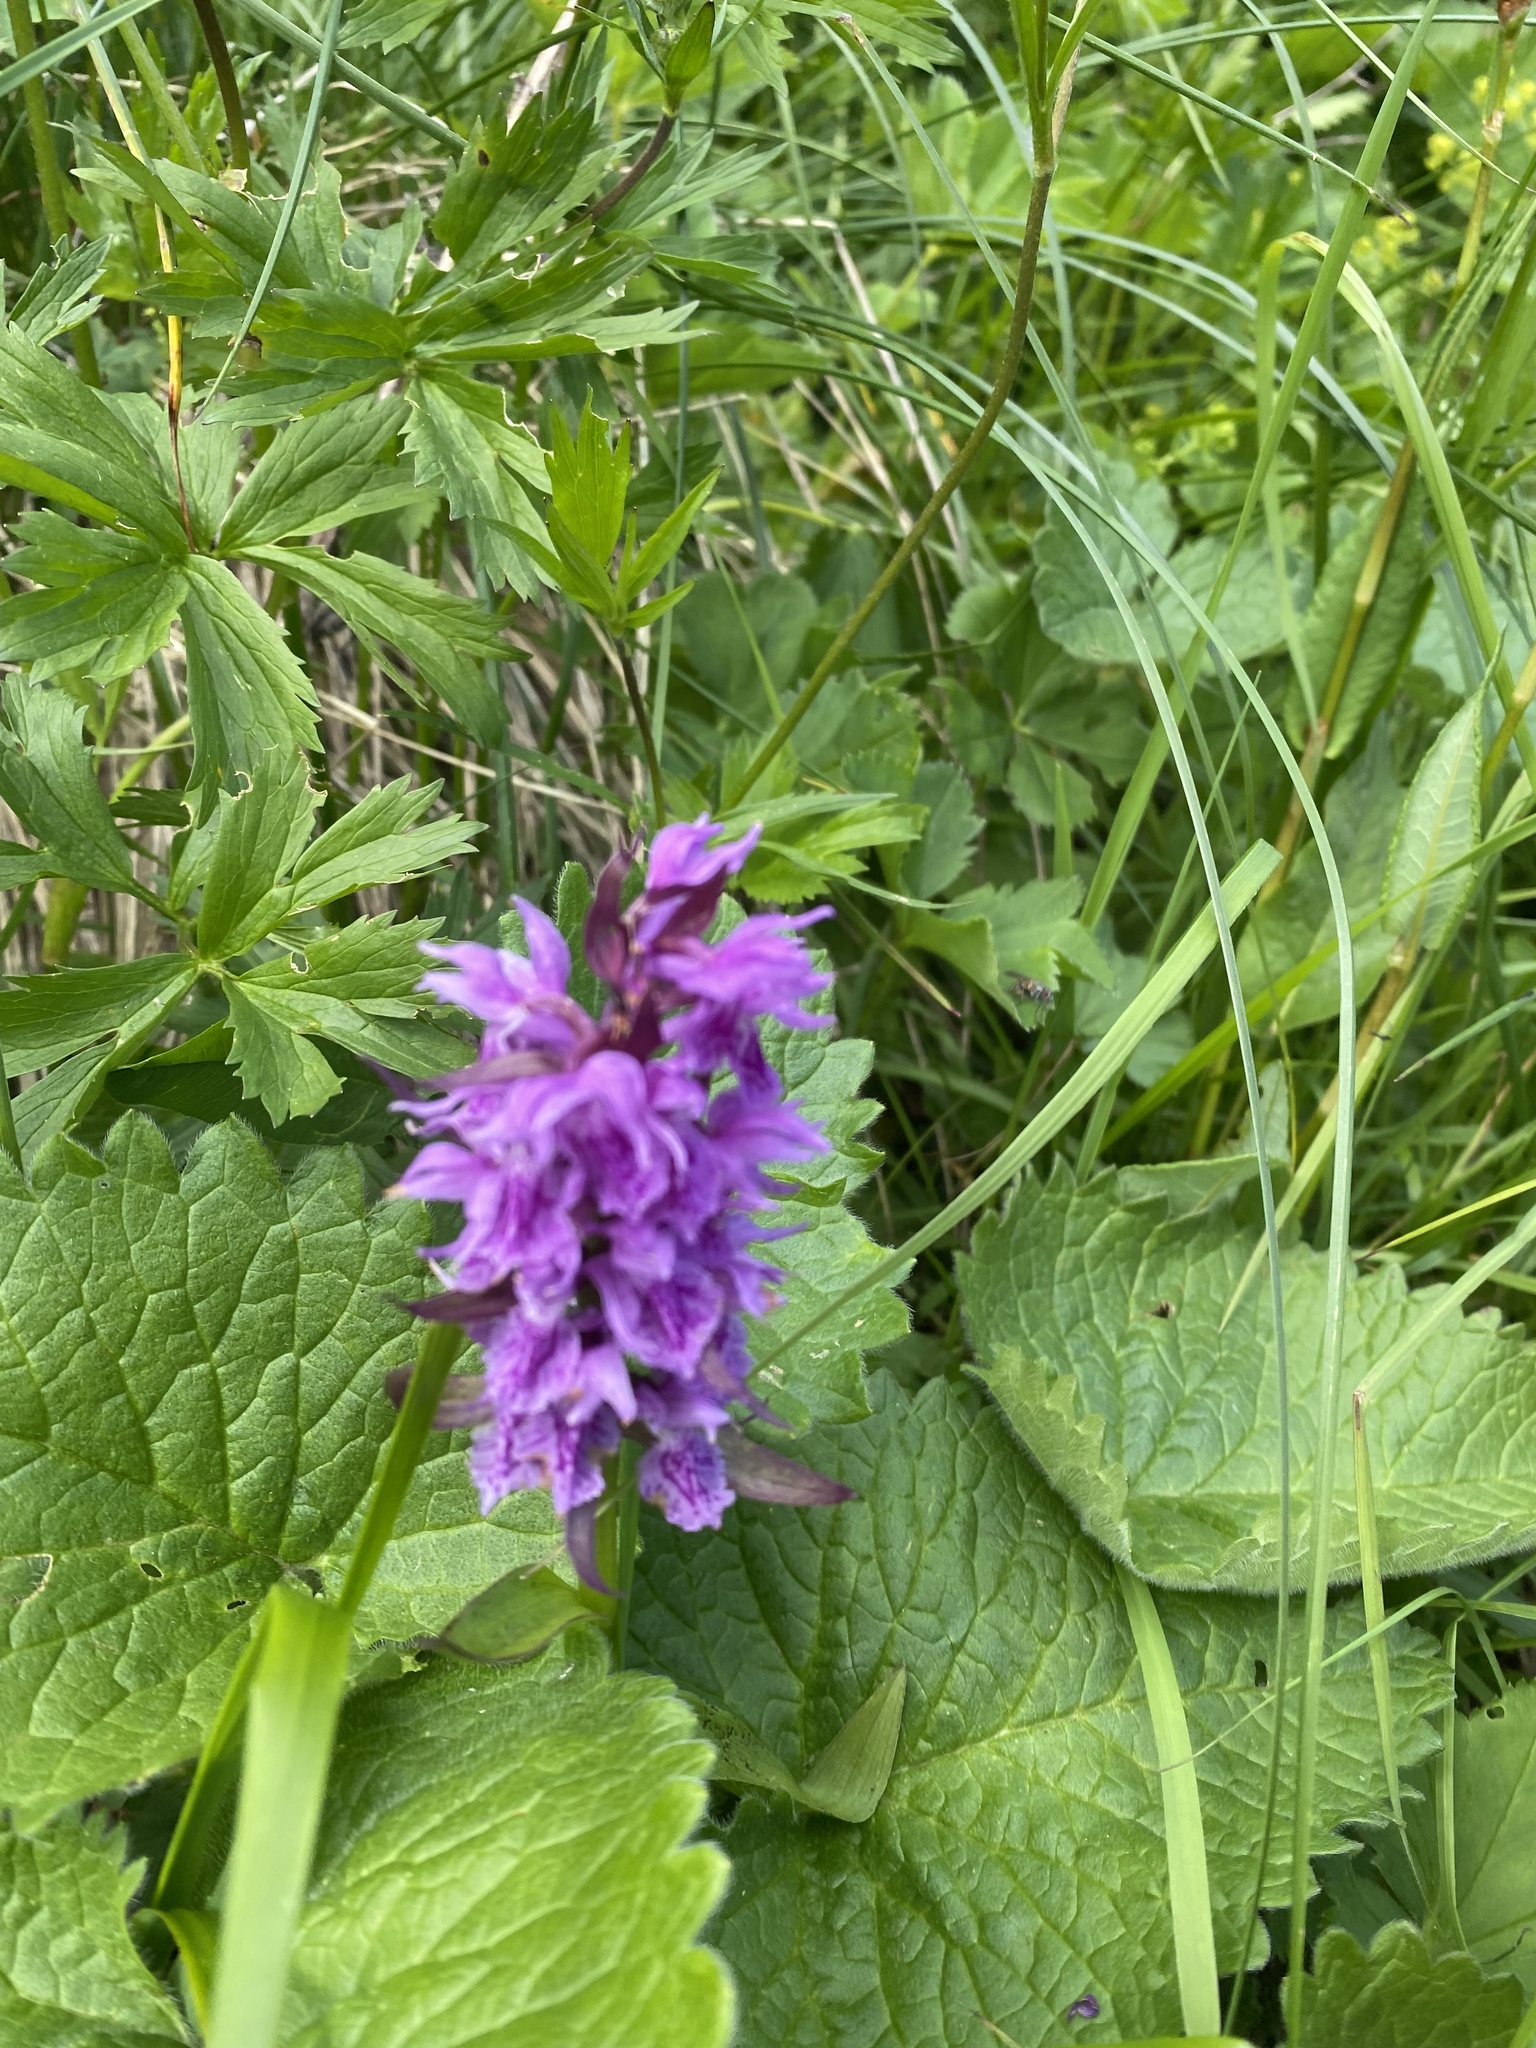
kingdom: Plantae
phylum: Tracheophyta
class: Liliopsida
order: Asparagales
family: Orchidaceae
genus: Dactylorhiza
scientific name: Dactylorhiza euxina
